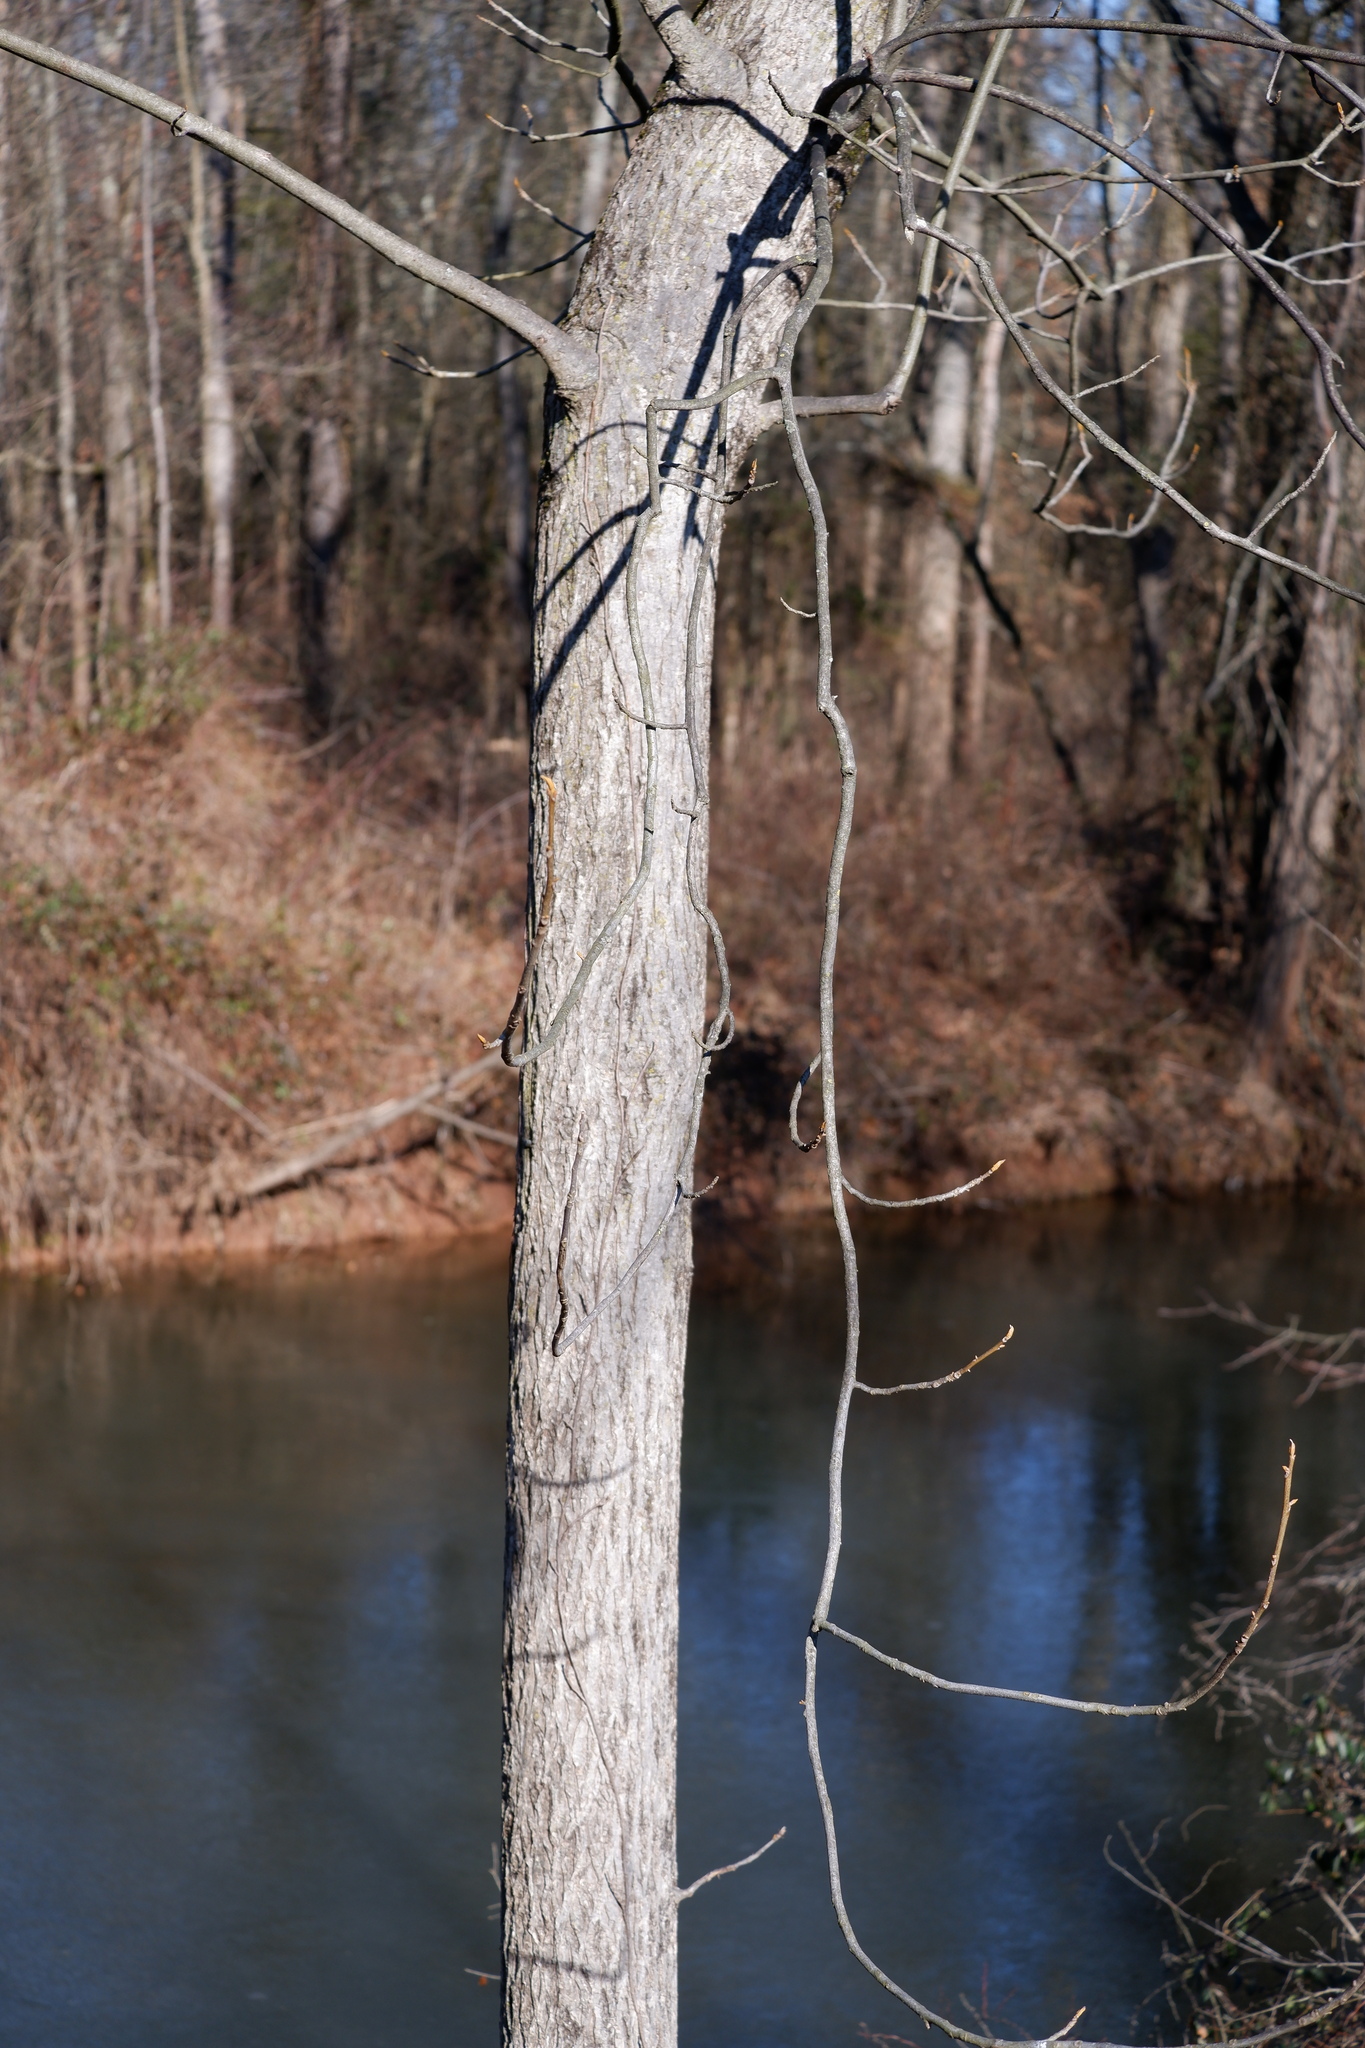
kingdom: Plantae
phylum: Tracheophyta
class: Magnoliopsida
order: Fagales
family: Juglandaceae
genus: Carya
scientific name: Carya cordiformis
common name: Bitternut hickory
